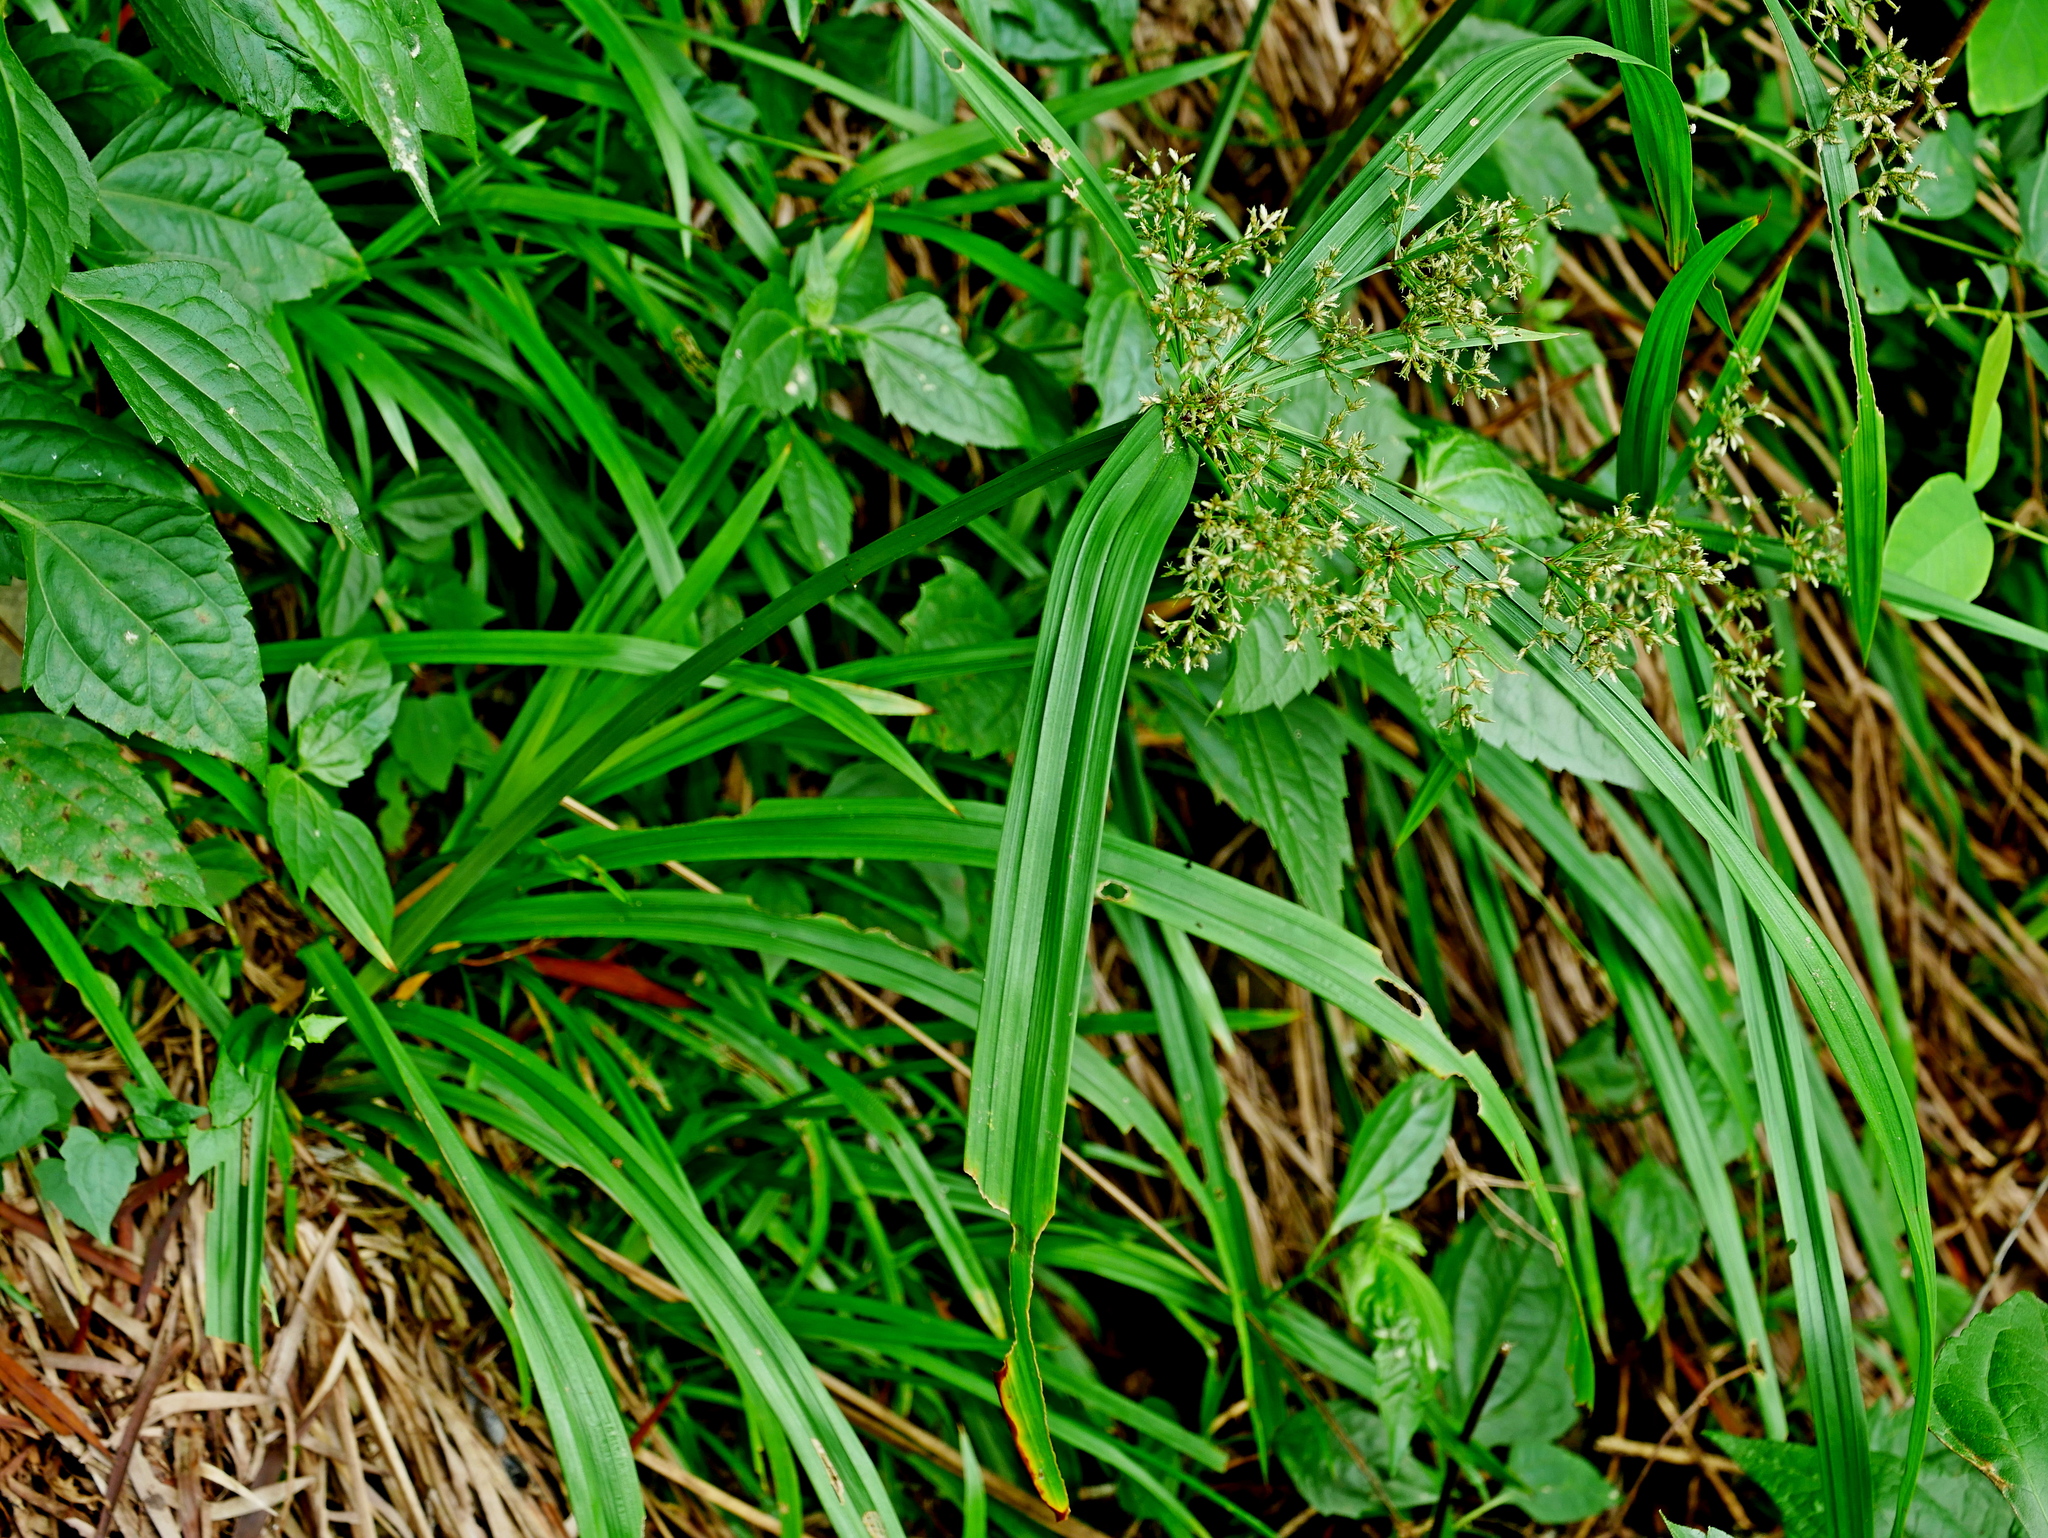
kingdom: Plantae
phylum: Tracheophyta
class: Liliopsida
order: Poales
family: Cyperaceae
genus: Cyperus
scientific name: Cyperus diffusus
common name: Dwarf umbrella grass
